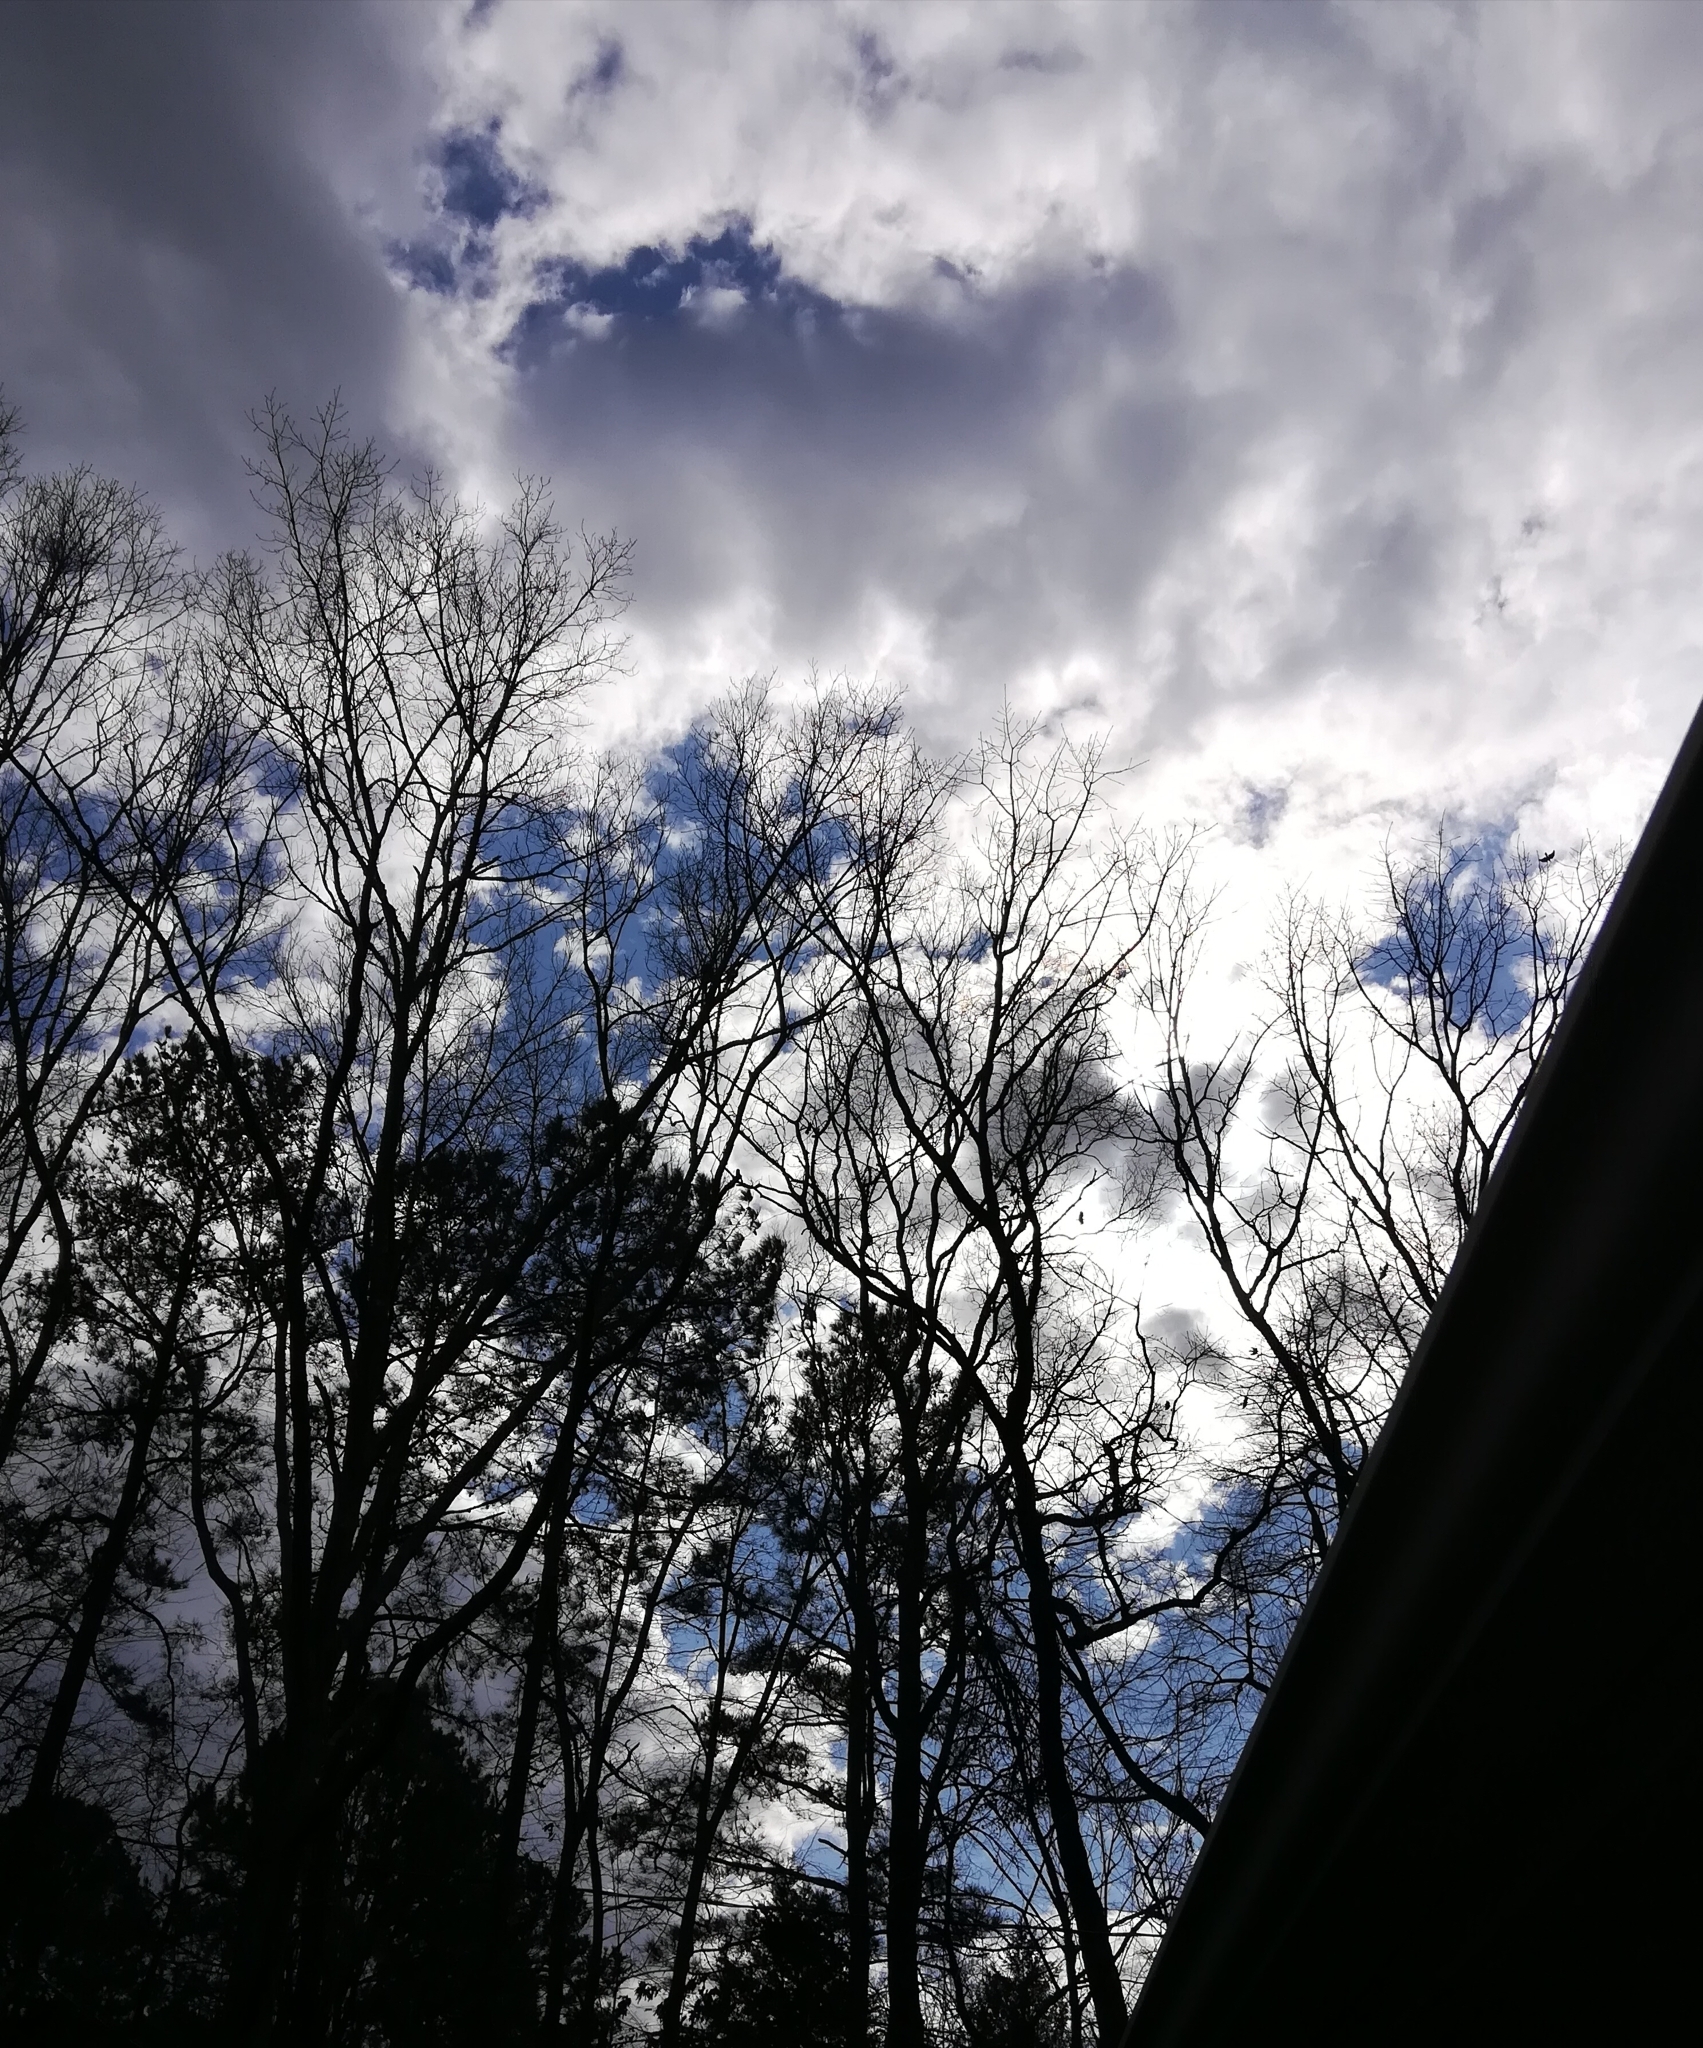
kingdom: Animalia
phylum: Chordata
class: Aves
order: Passeriformes
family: Corvidae
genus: Corvus
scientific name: Corvus ossifragus
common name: Fish crow
